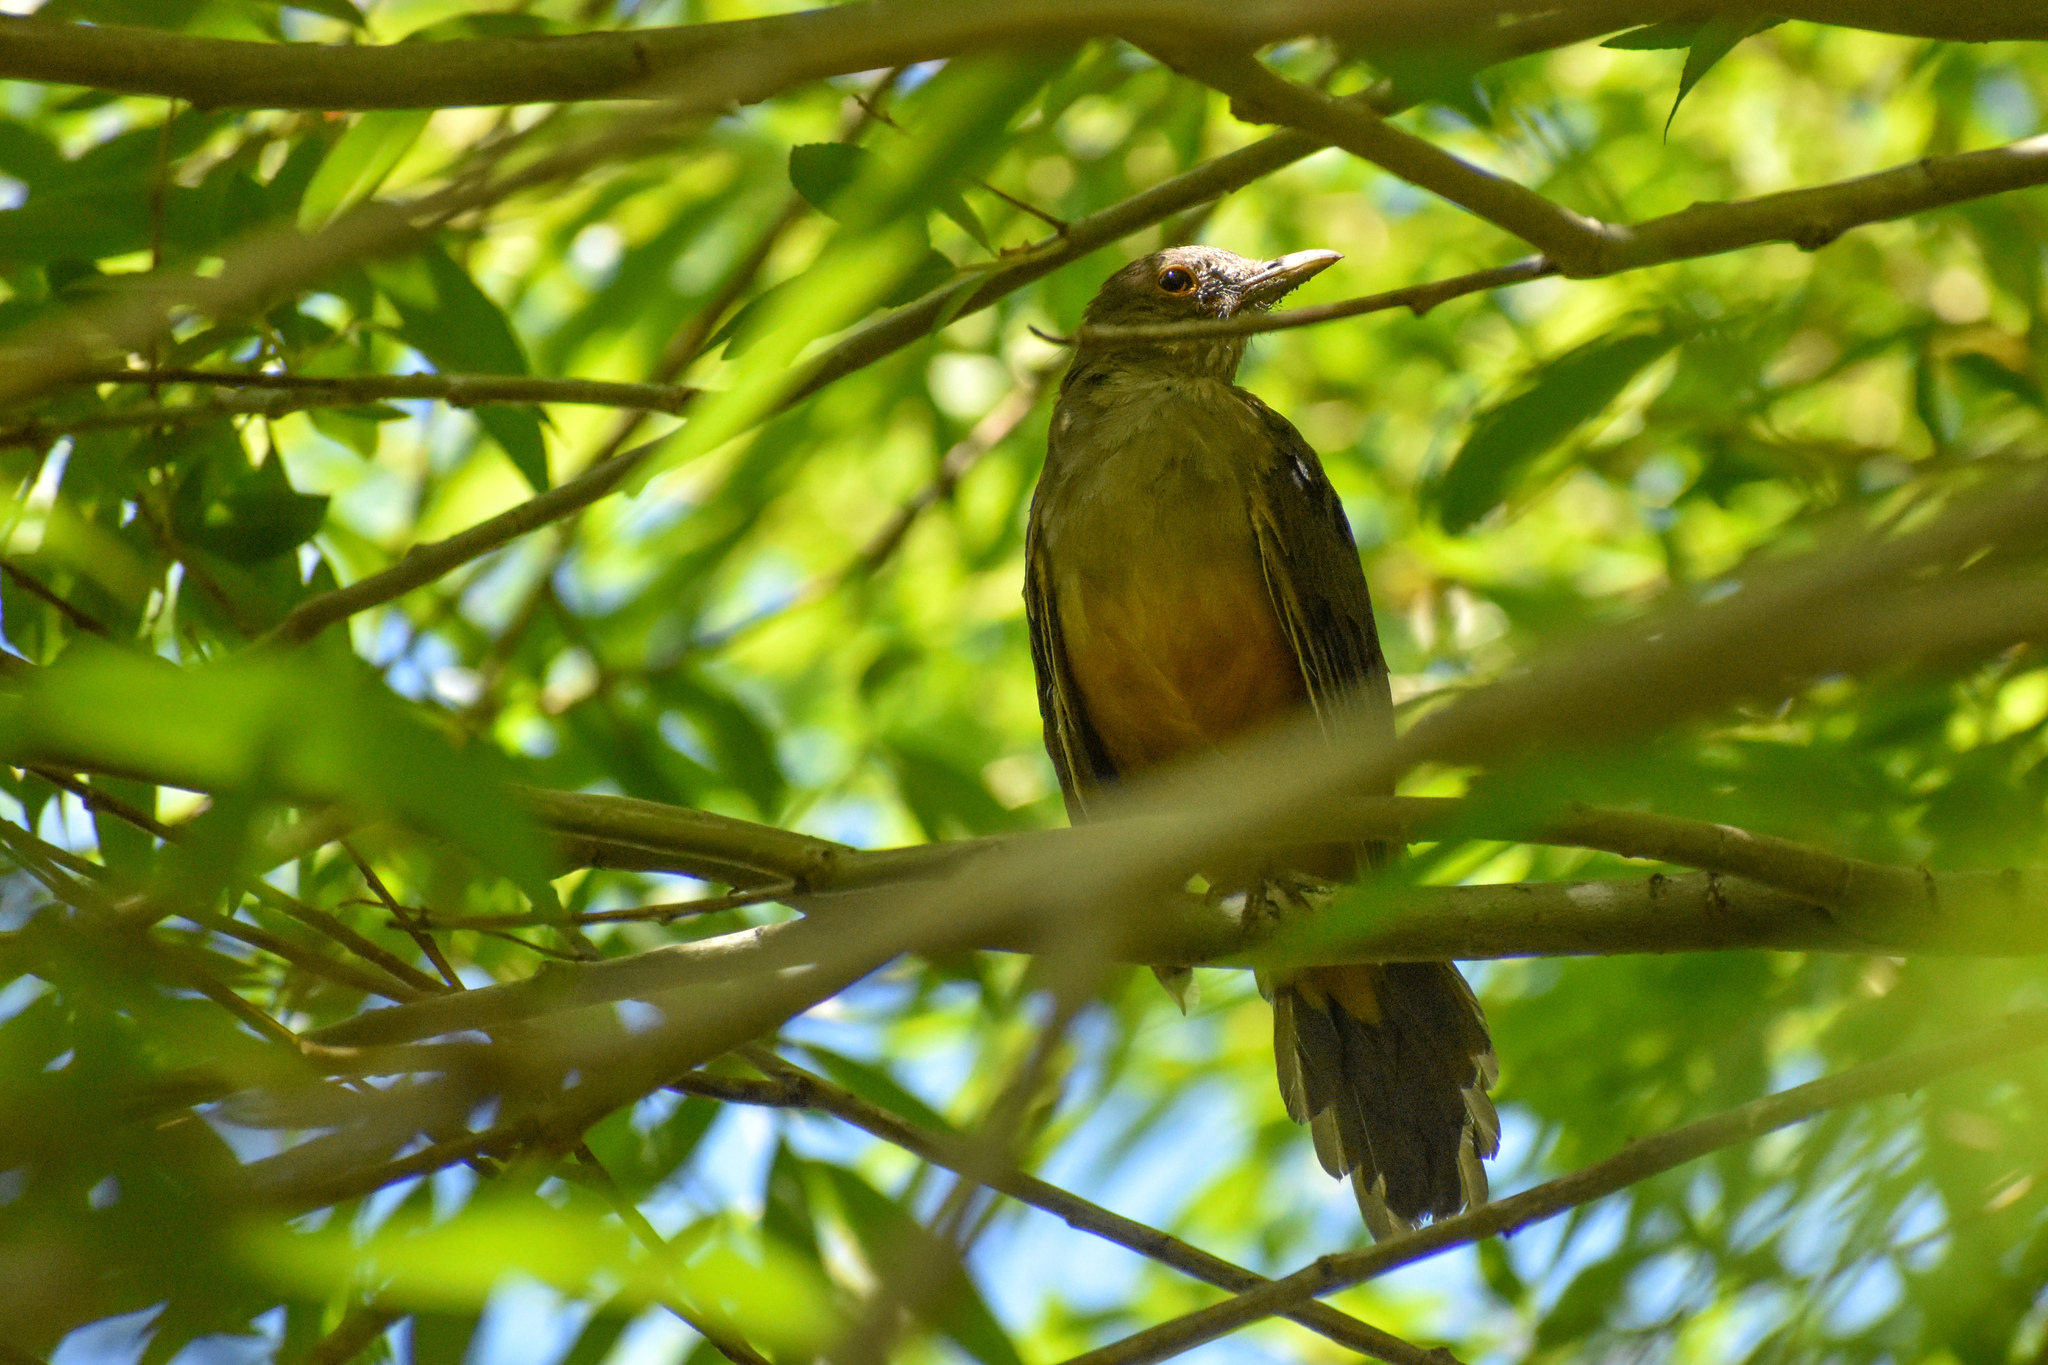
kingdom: Animalia
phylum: Chordata
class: Aves
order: Passeriformes
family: Turdidae
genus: Turdus
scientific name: Turdus rufiventris
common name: Rufous-bellied thrush
